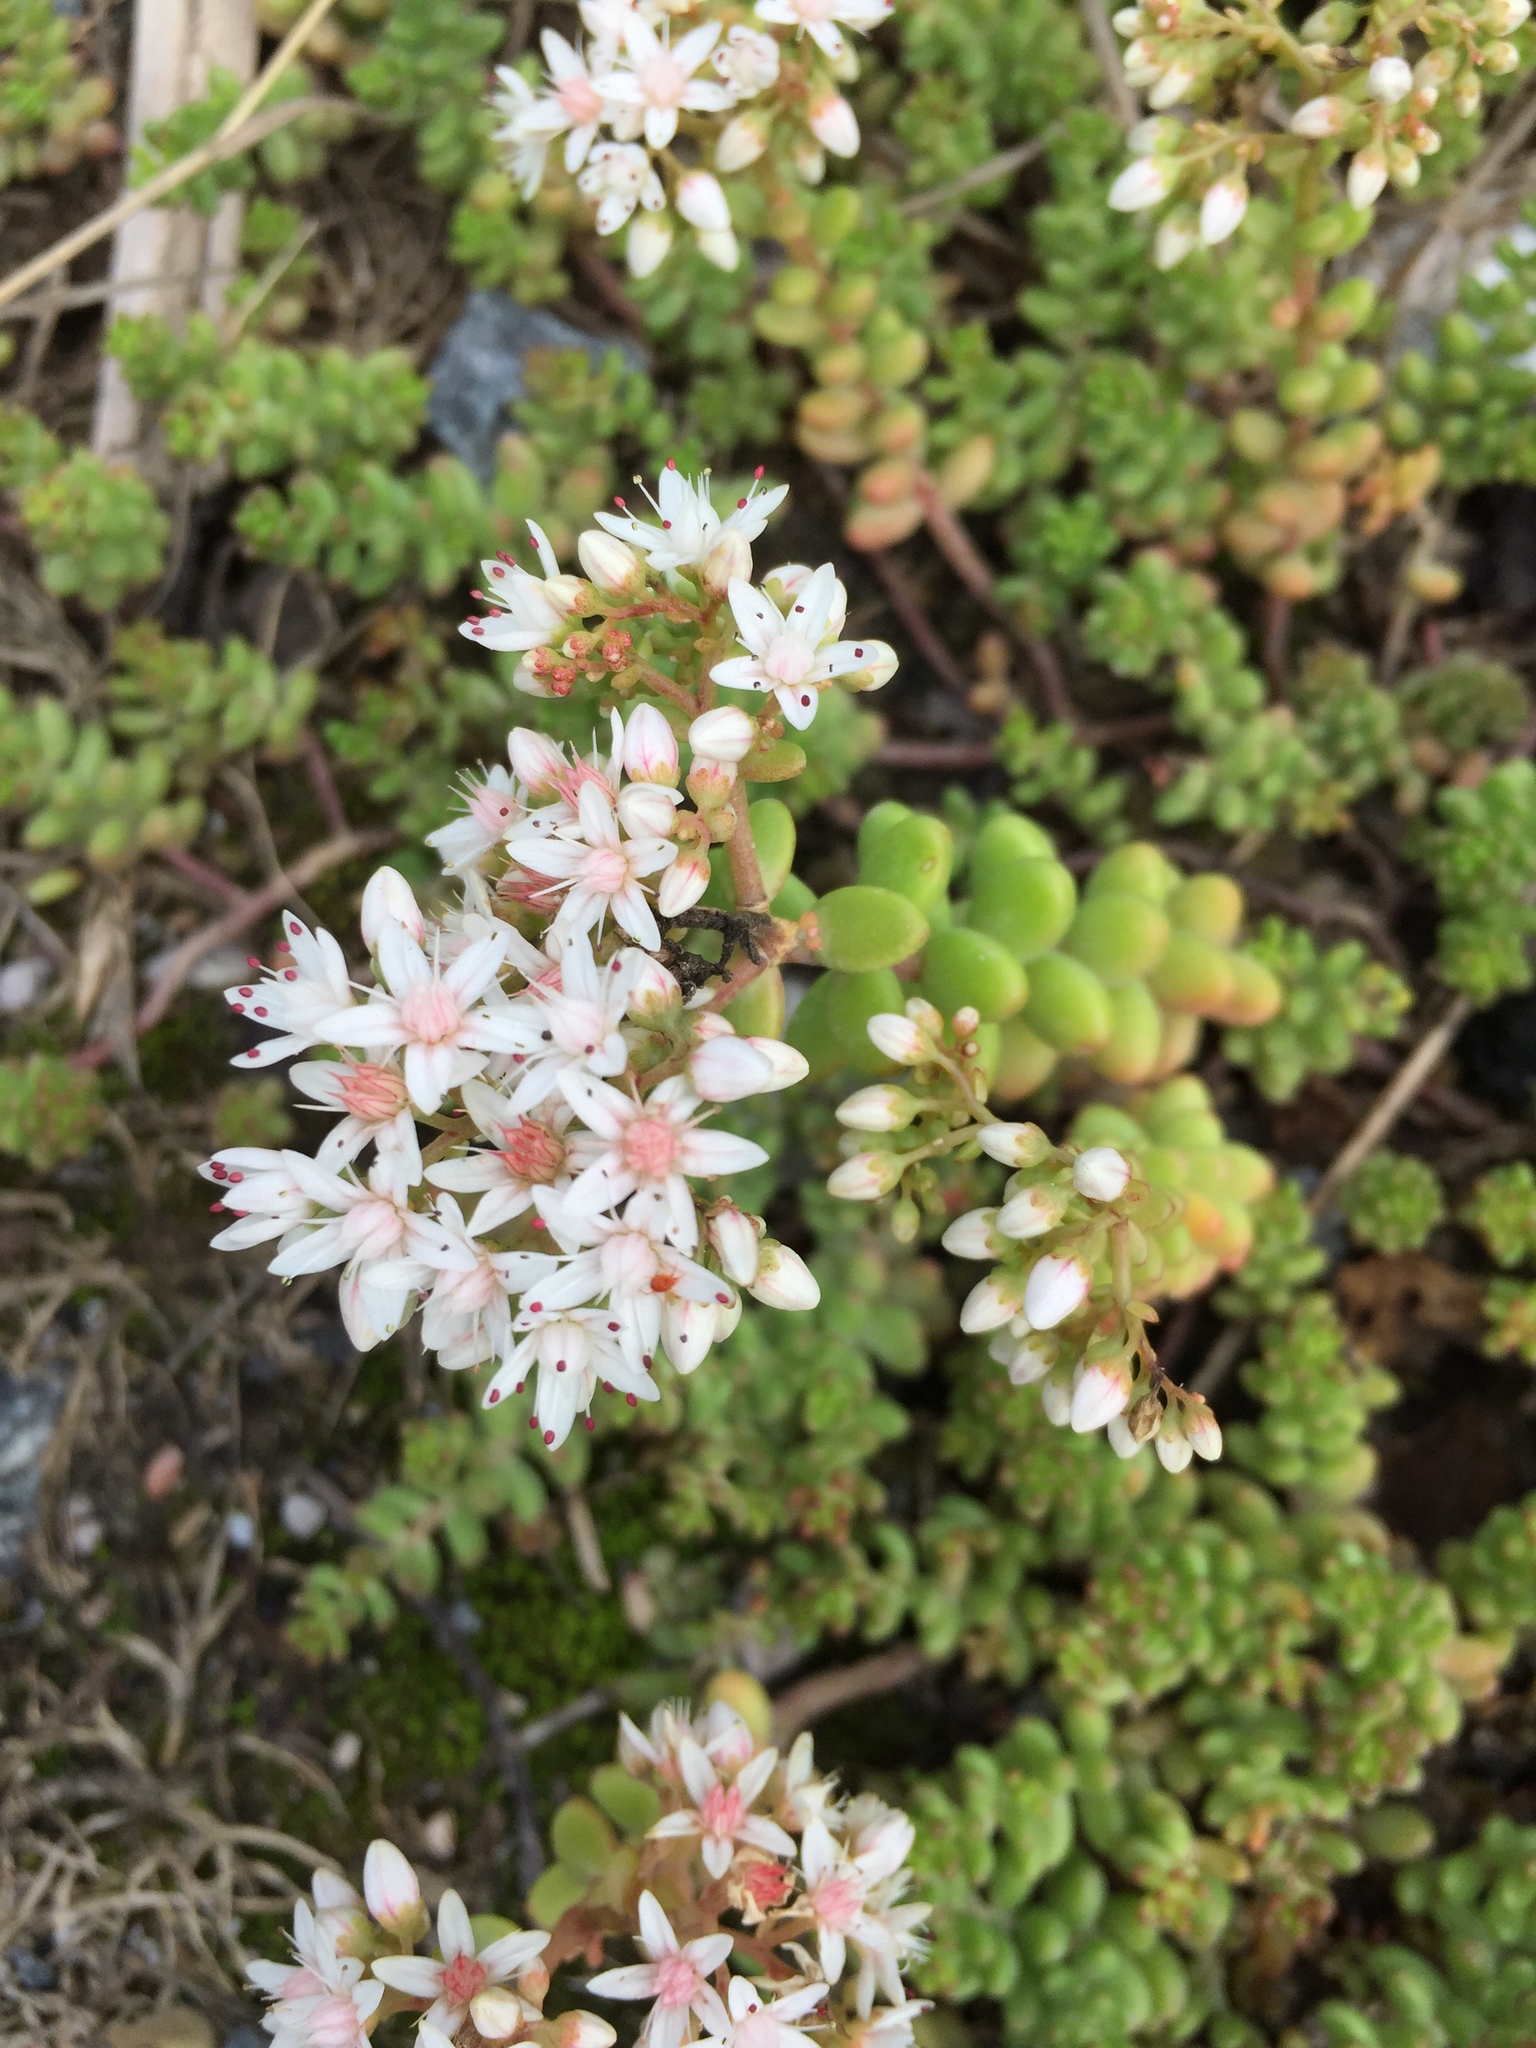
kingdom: Plantae
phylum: Tracheophyta
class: Magnoliopsida
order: Saxifragales
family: Crassulaceae
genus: Sedum
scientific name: Sedum album
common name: White stonecrop
